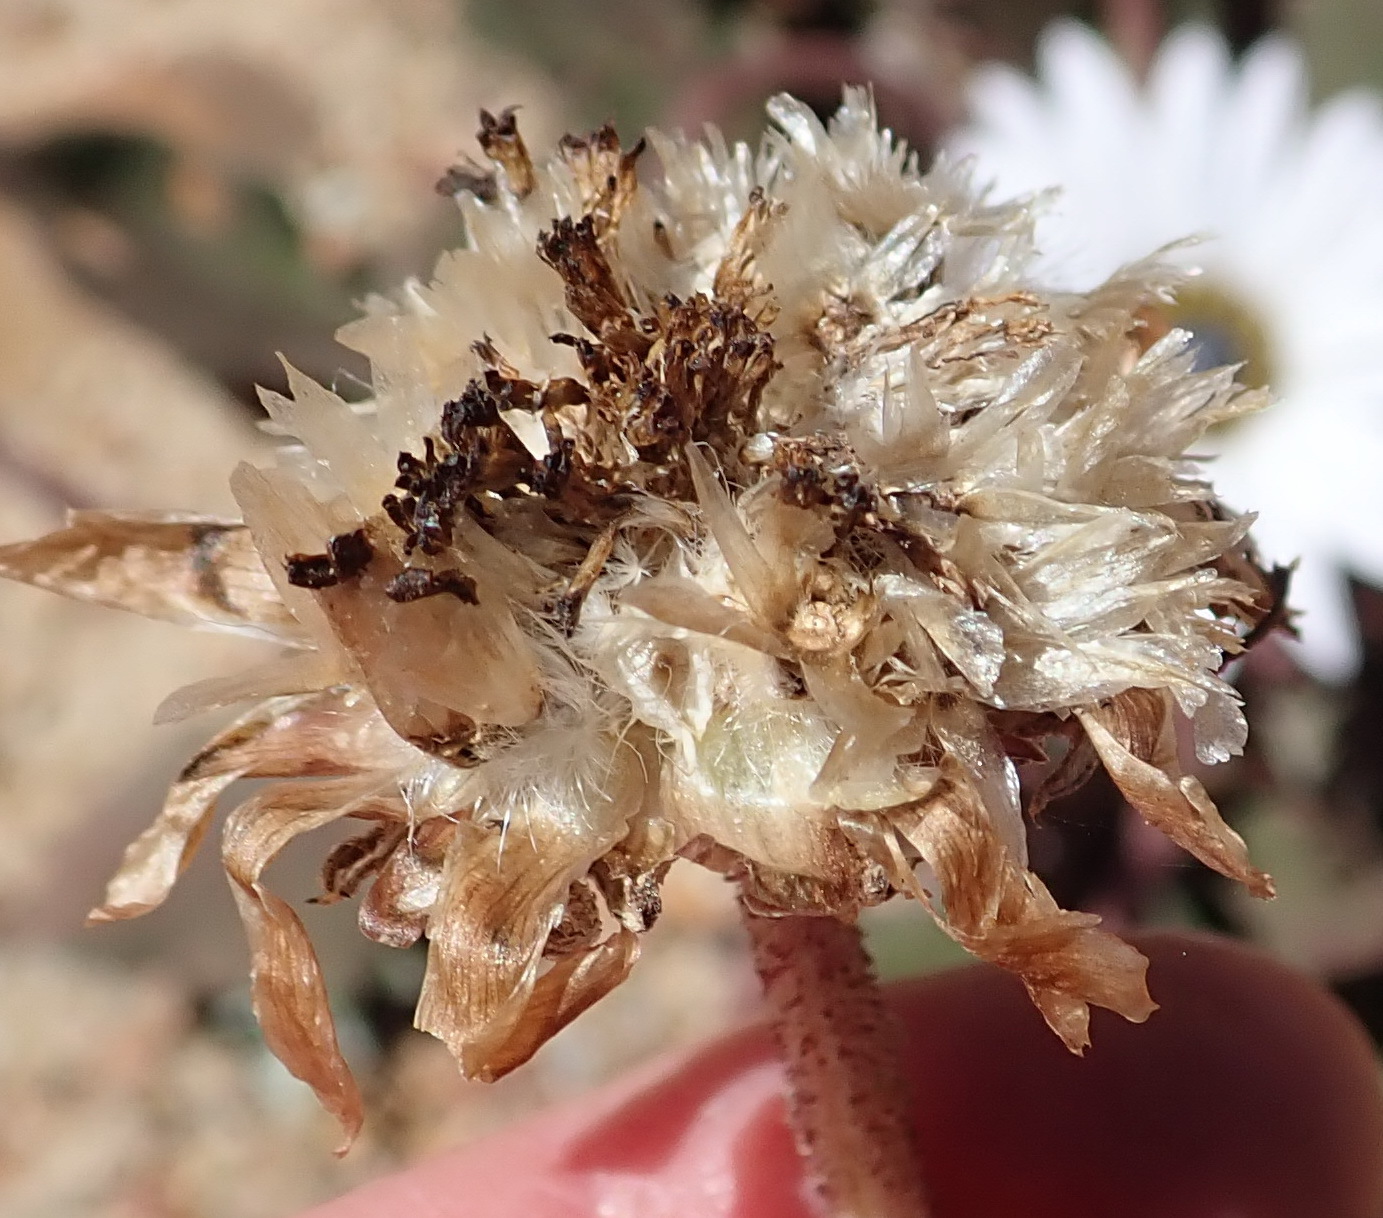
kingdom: Plantae
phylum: Tracheophyta
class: Magnoliopsida
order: Asterales
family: Asteraceae
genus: Arctotis
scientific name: Arctotis acaulis
